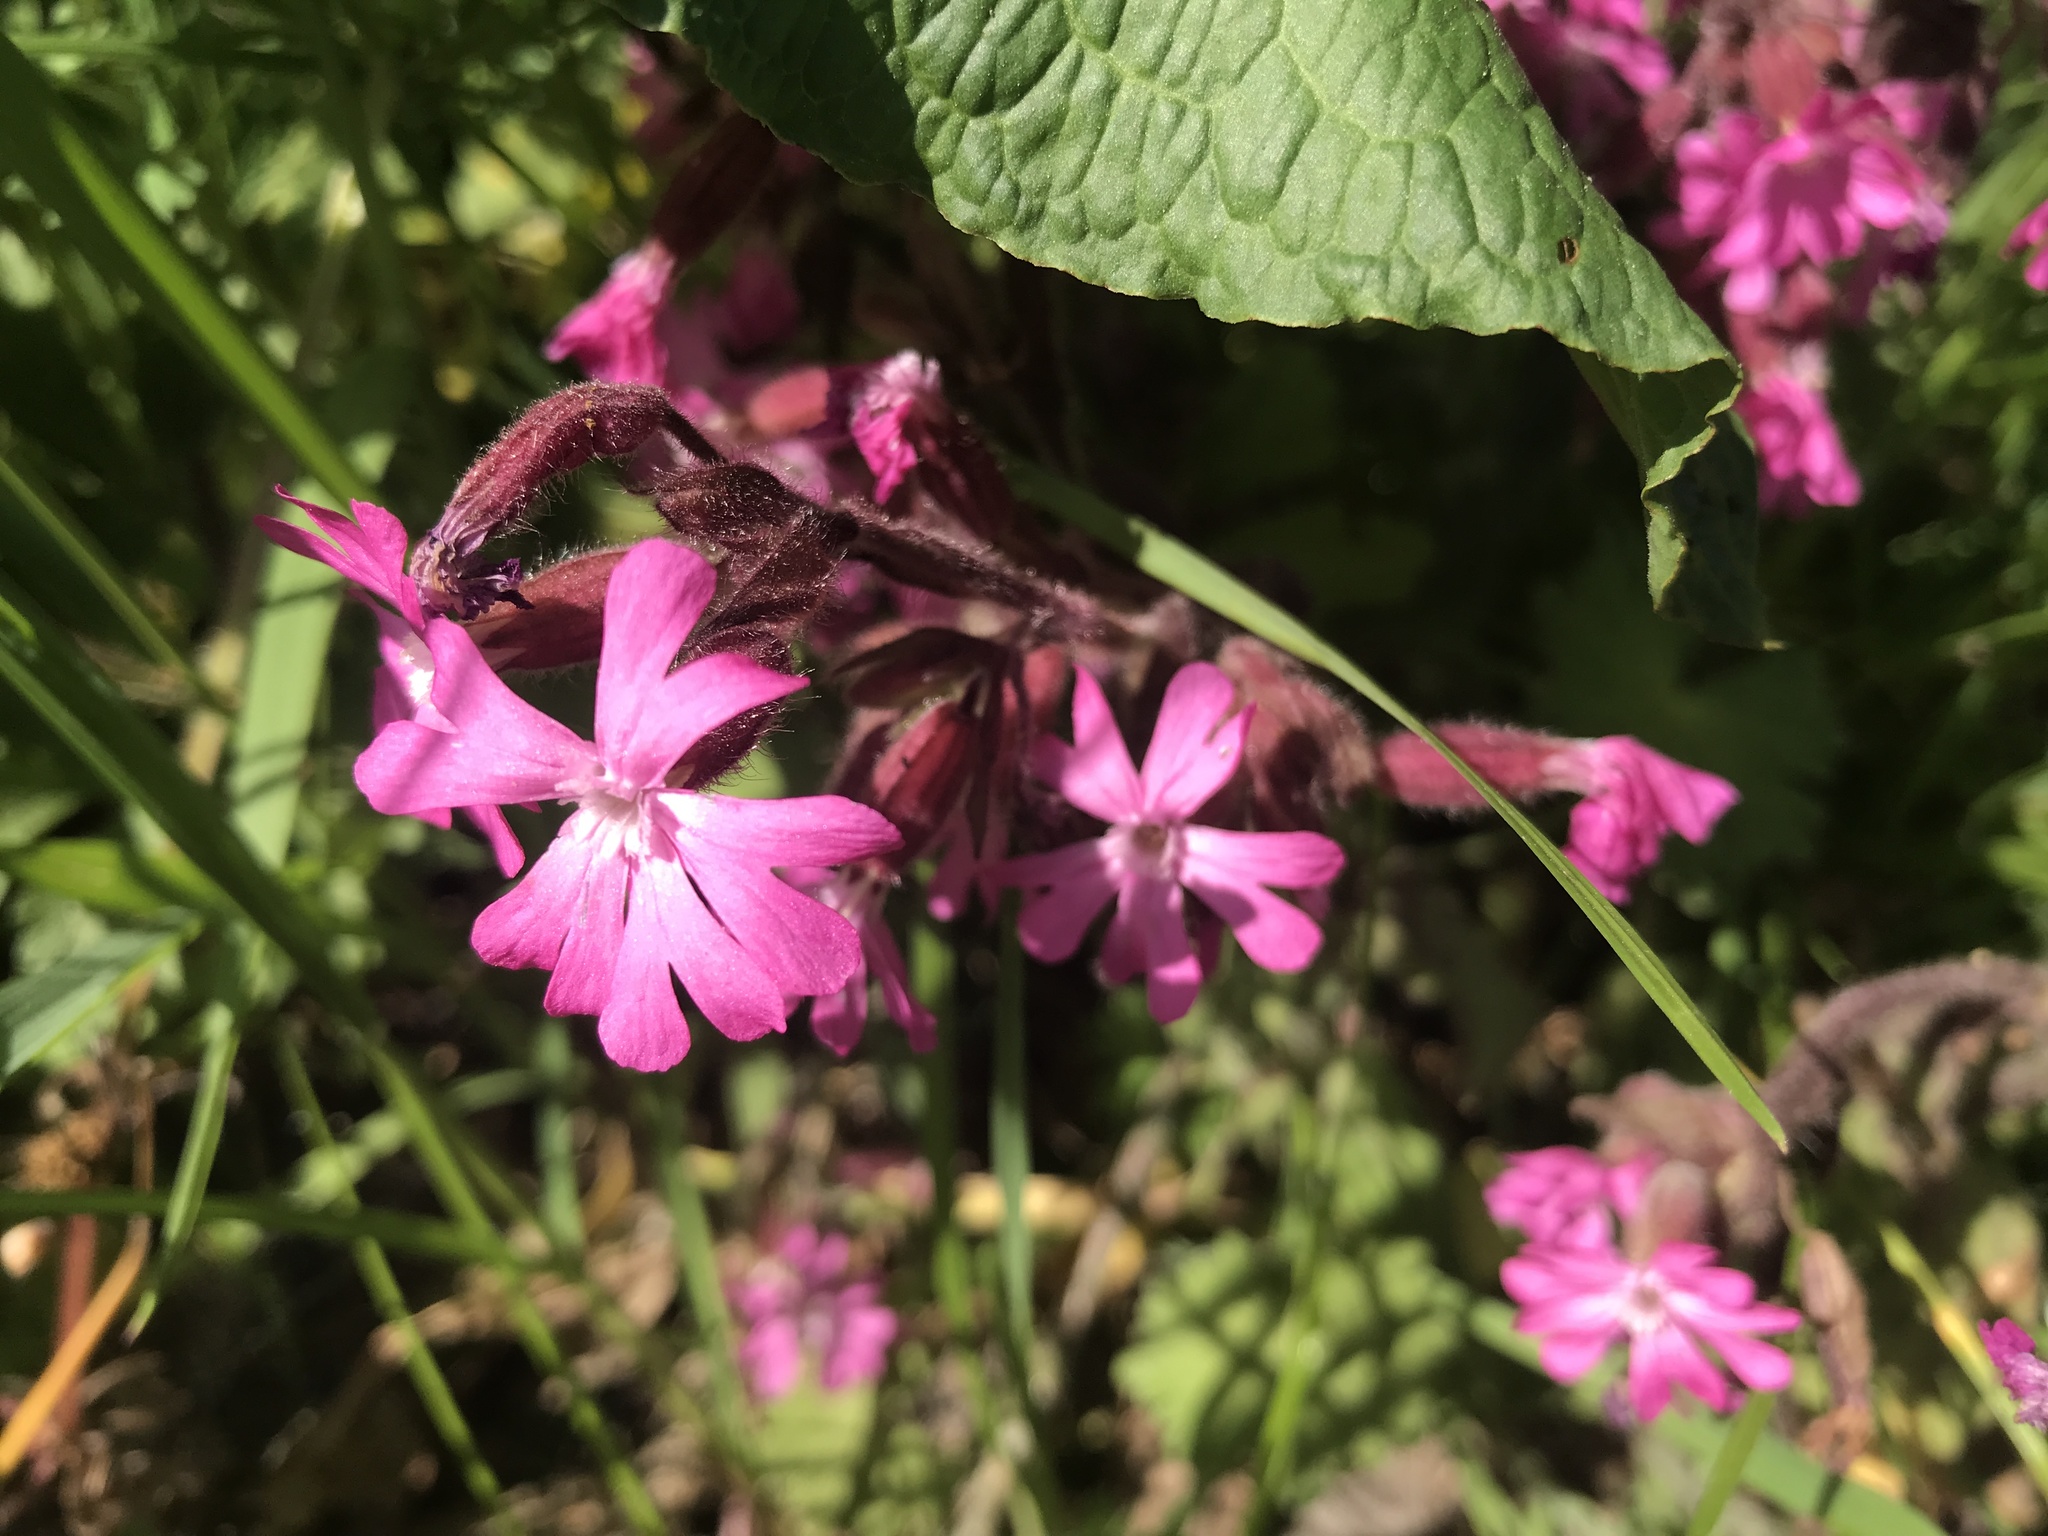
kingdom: Plantae
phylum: Tracheophyta
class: Magnoliopsida
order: Caryophyllales
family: Caryophyllaceae
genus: Silene
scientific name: Silene dioica
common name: Red campion
